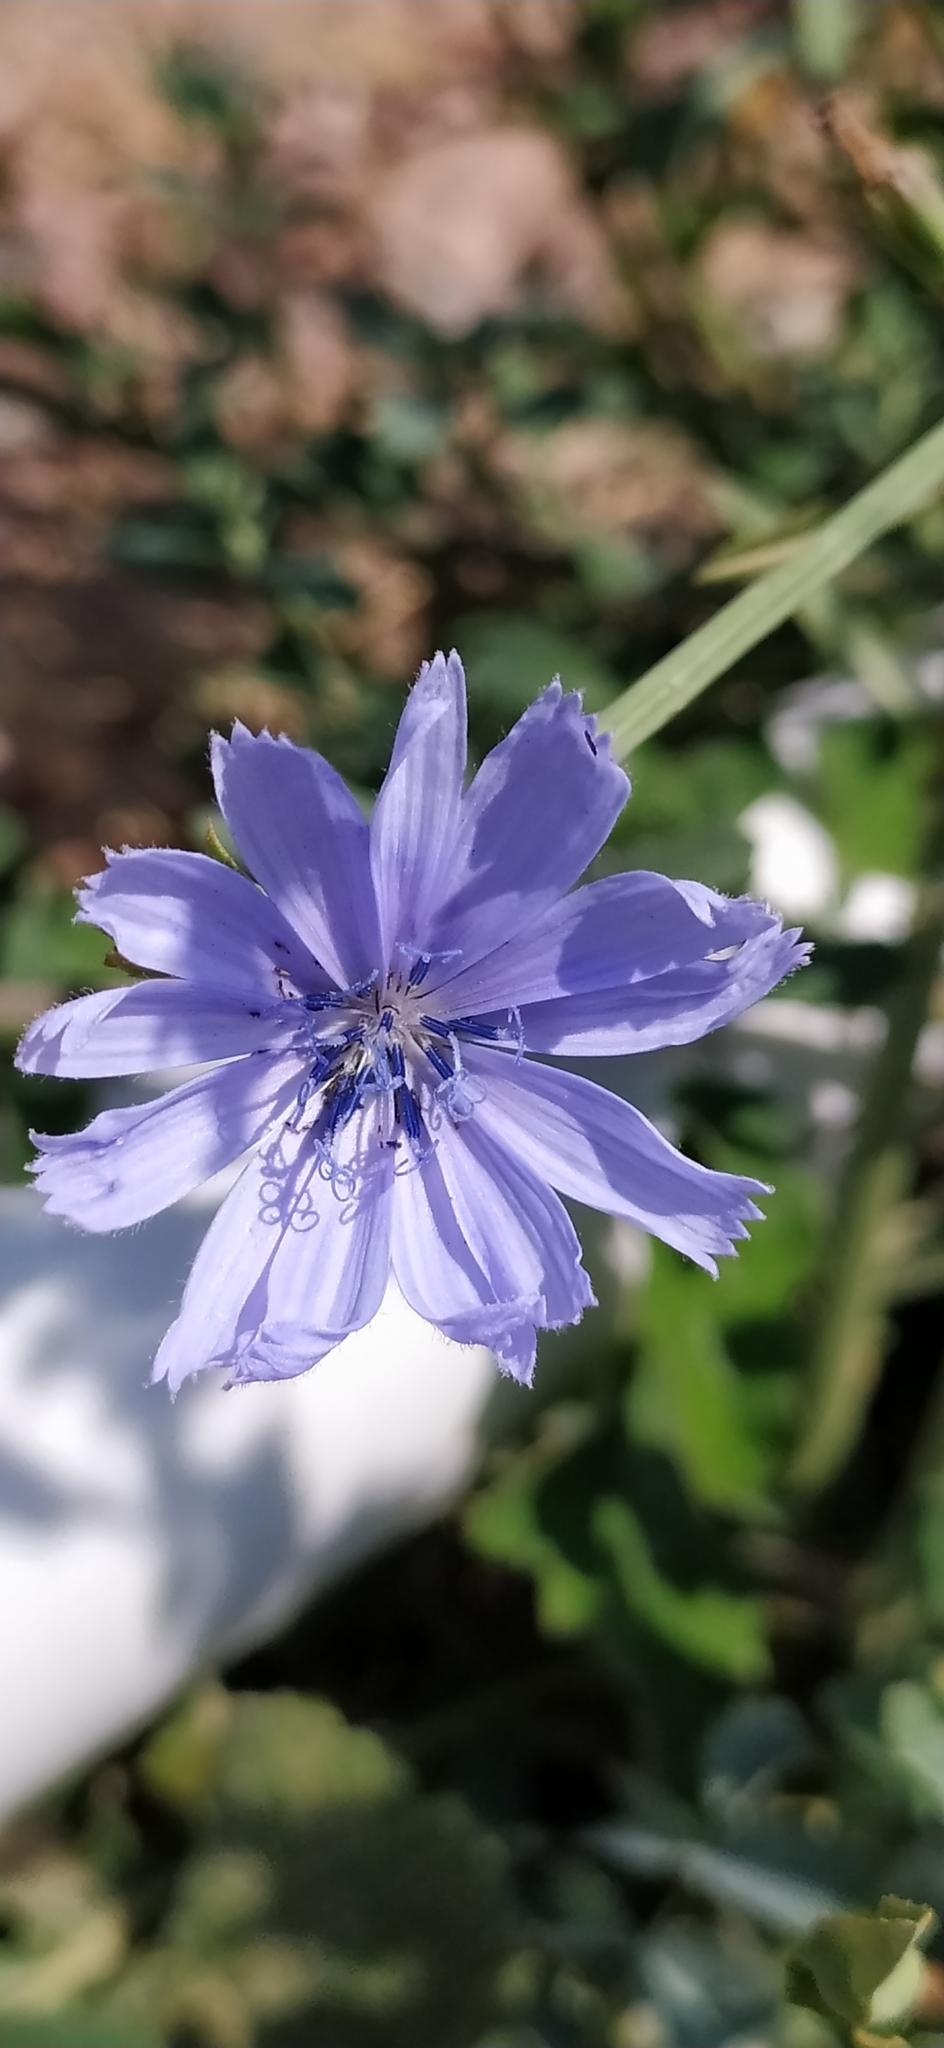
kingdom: Plantae
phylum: Tracheophyta
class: Magnoliopsida
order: Asterales
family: Asteraceae
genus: Cichorium
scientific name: Cichorium intybus
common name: Chicory
